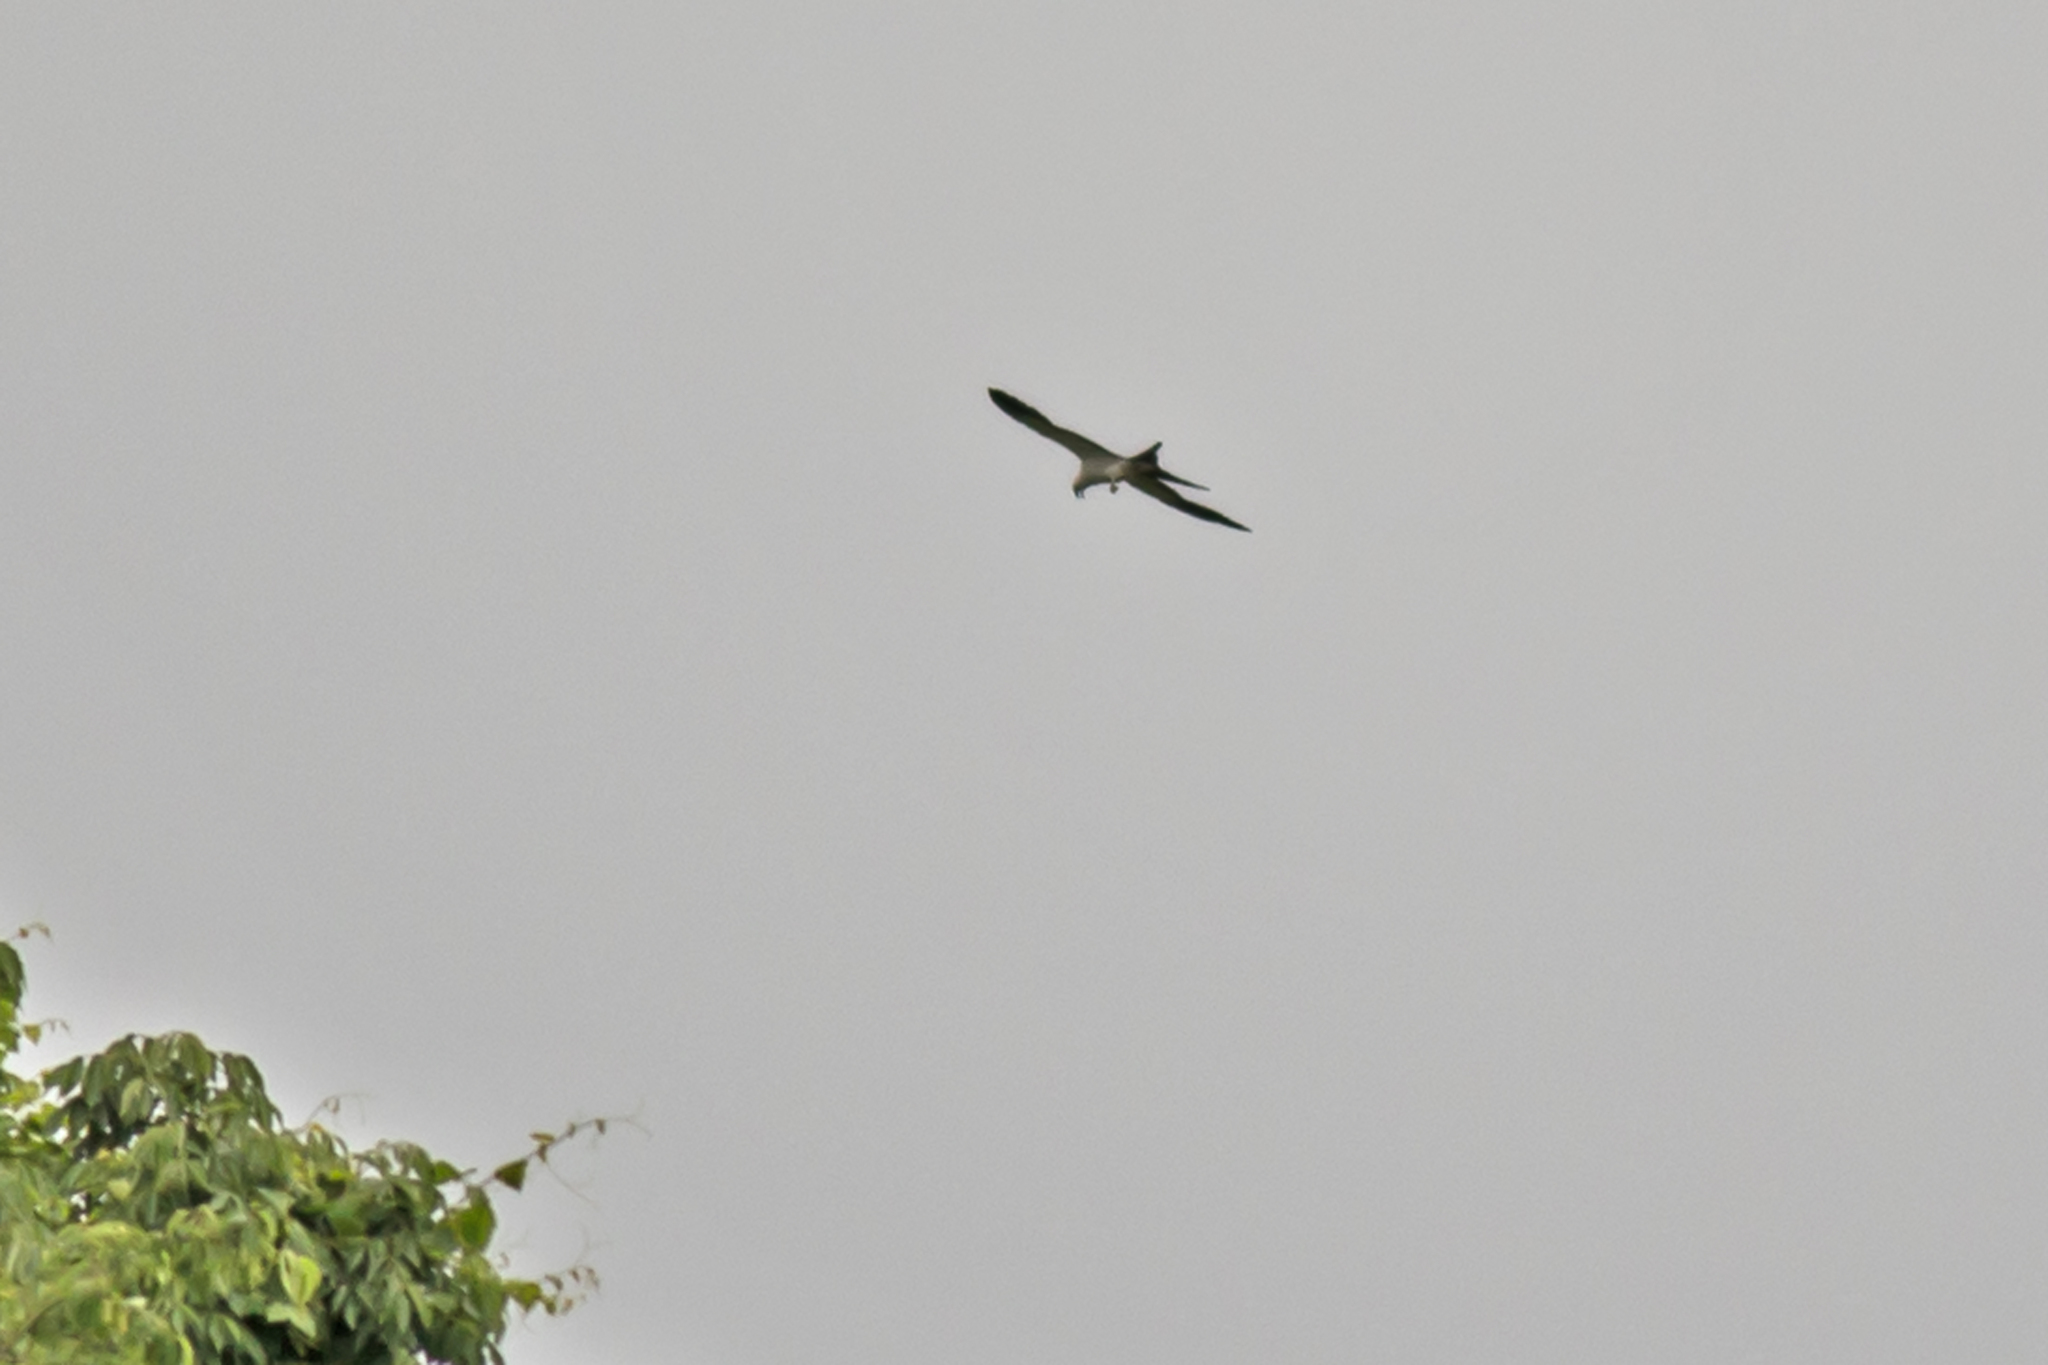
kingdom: Animalia
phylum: Chordata
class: Aves
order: Accipitriformes
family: Accipitridae
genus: Elanoides
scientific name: Elanoides forficatus
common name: Swallow-tailed kite
